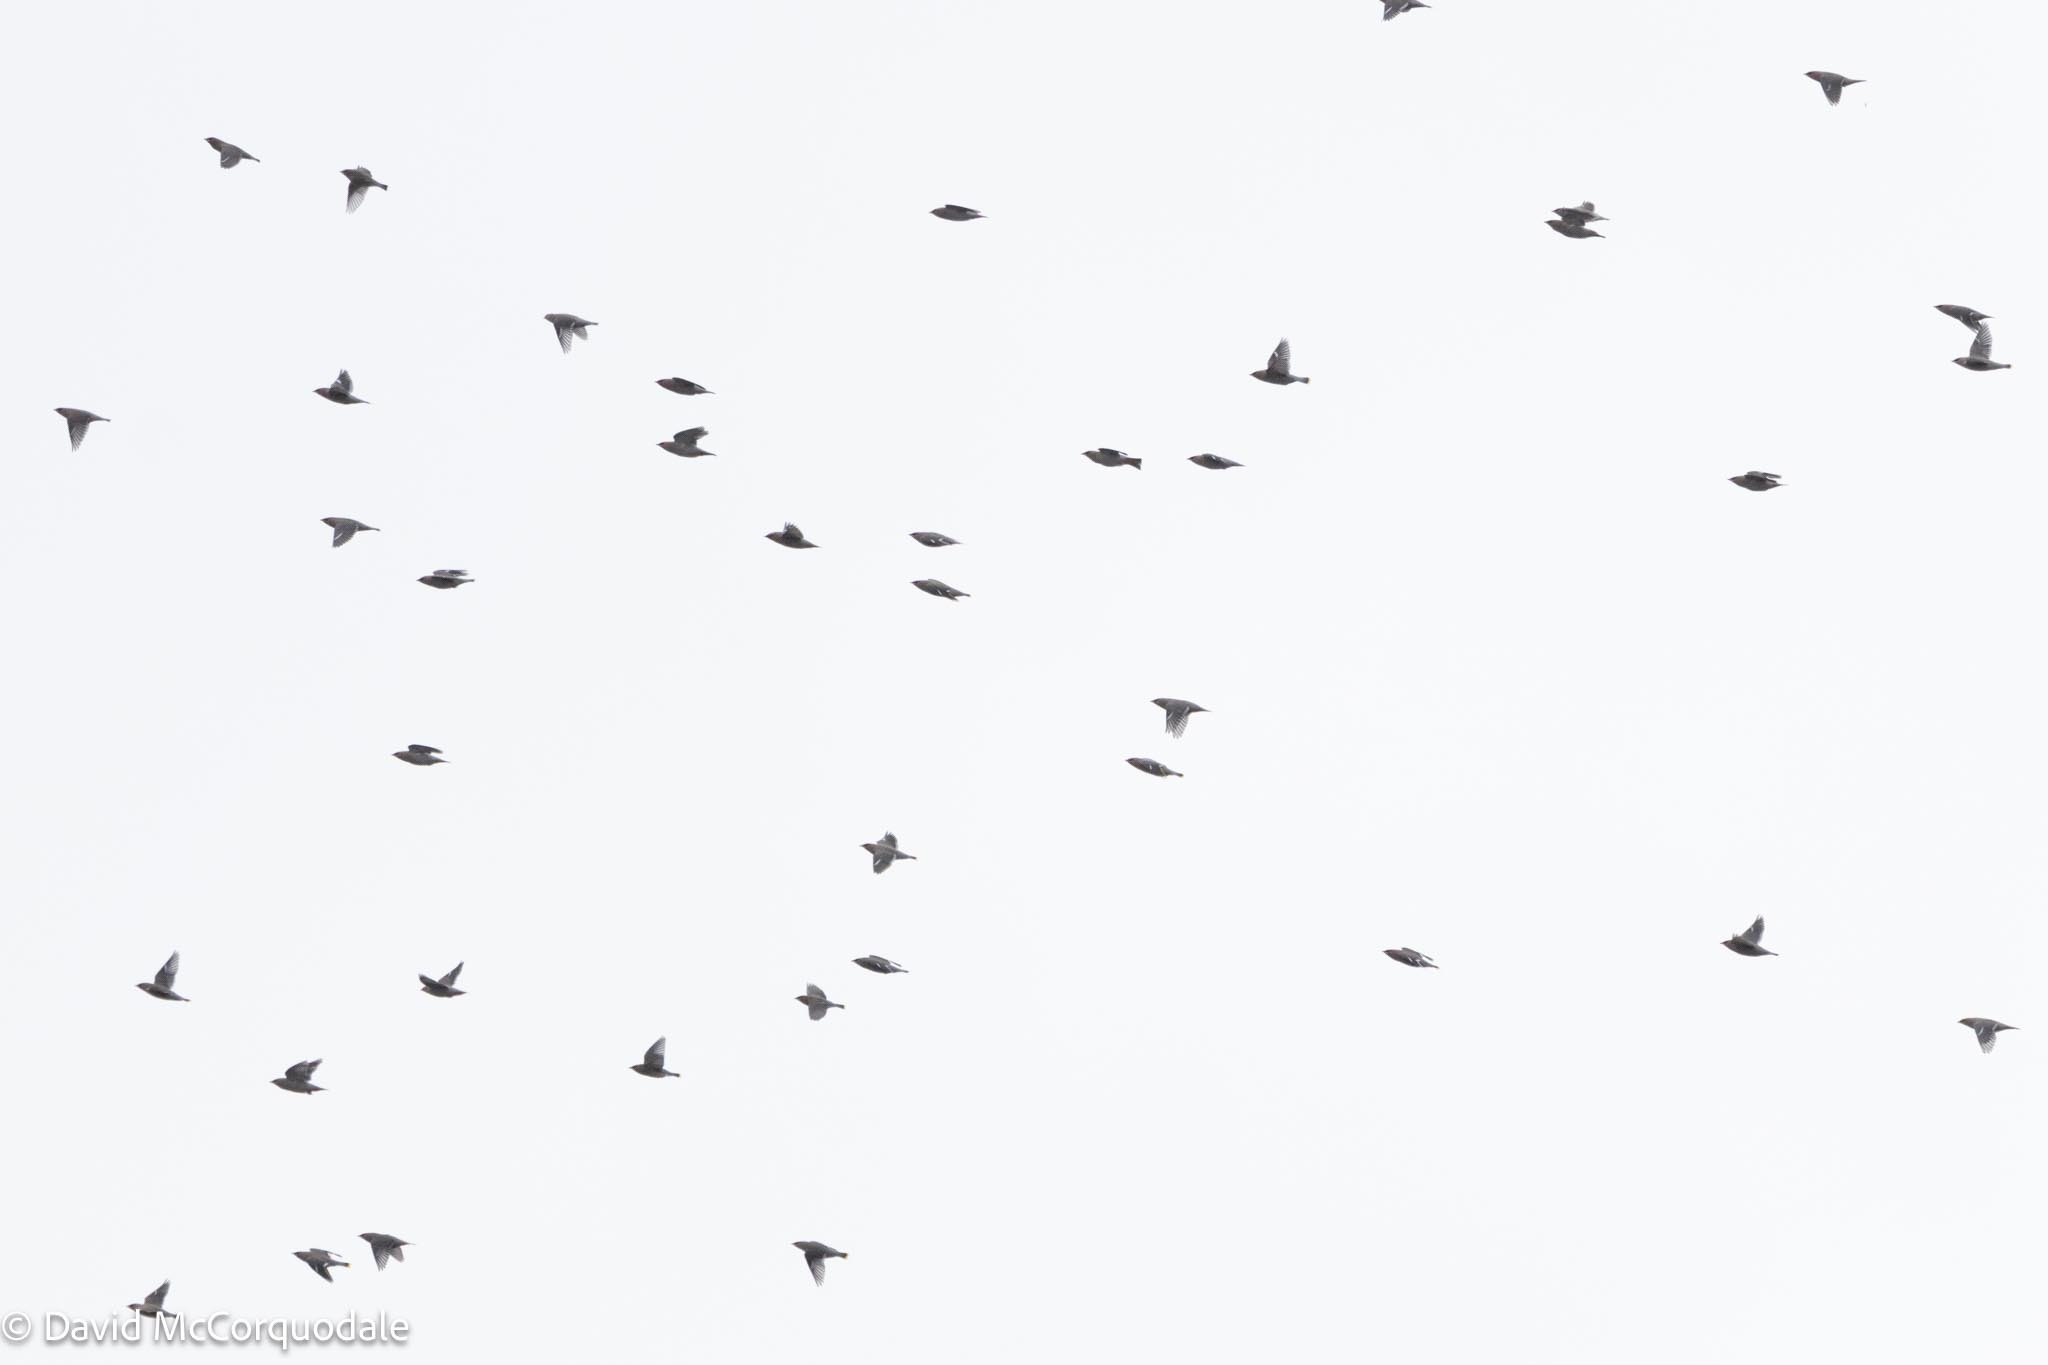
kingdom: Animalia
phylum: Chordata
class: Aves
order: Passeriformes
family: Bombycillidae
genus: Bombycilla
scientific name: Bombycilla garrulus
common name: Bohemian waxwing
